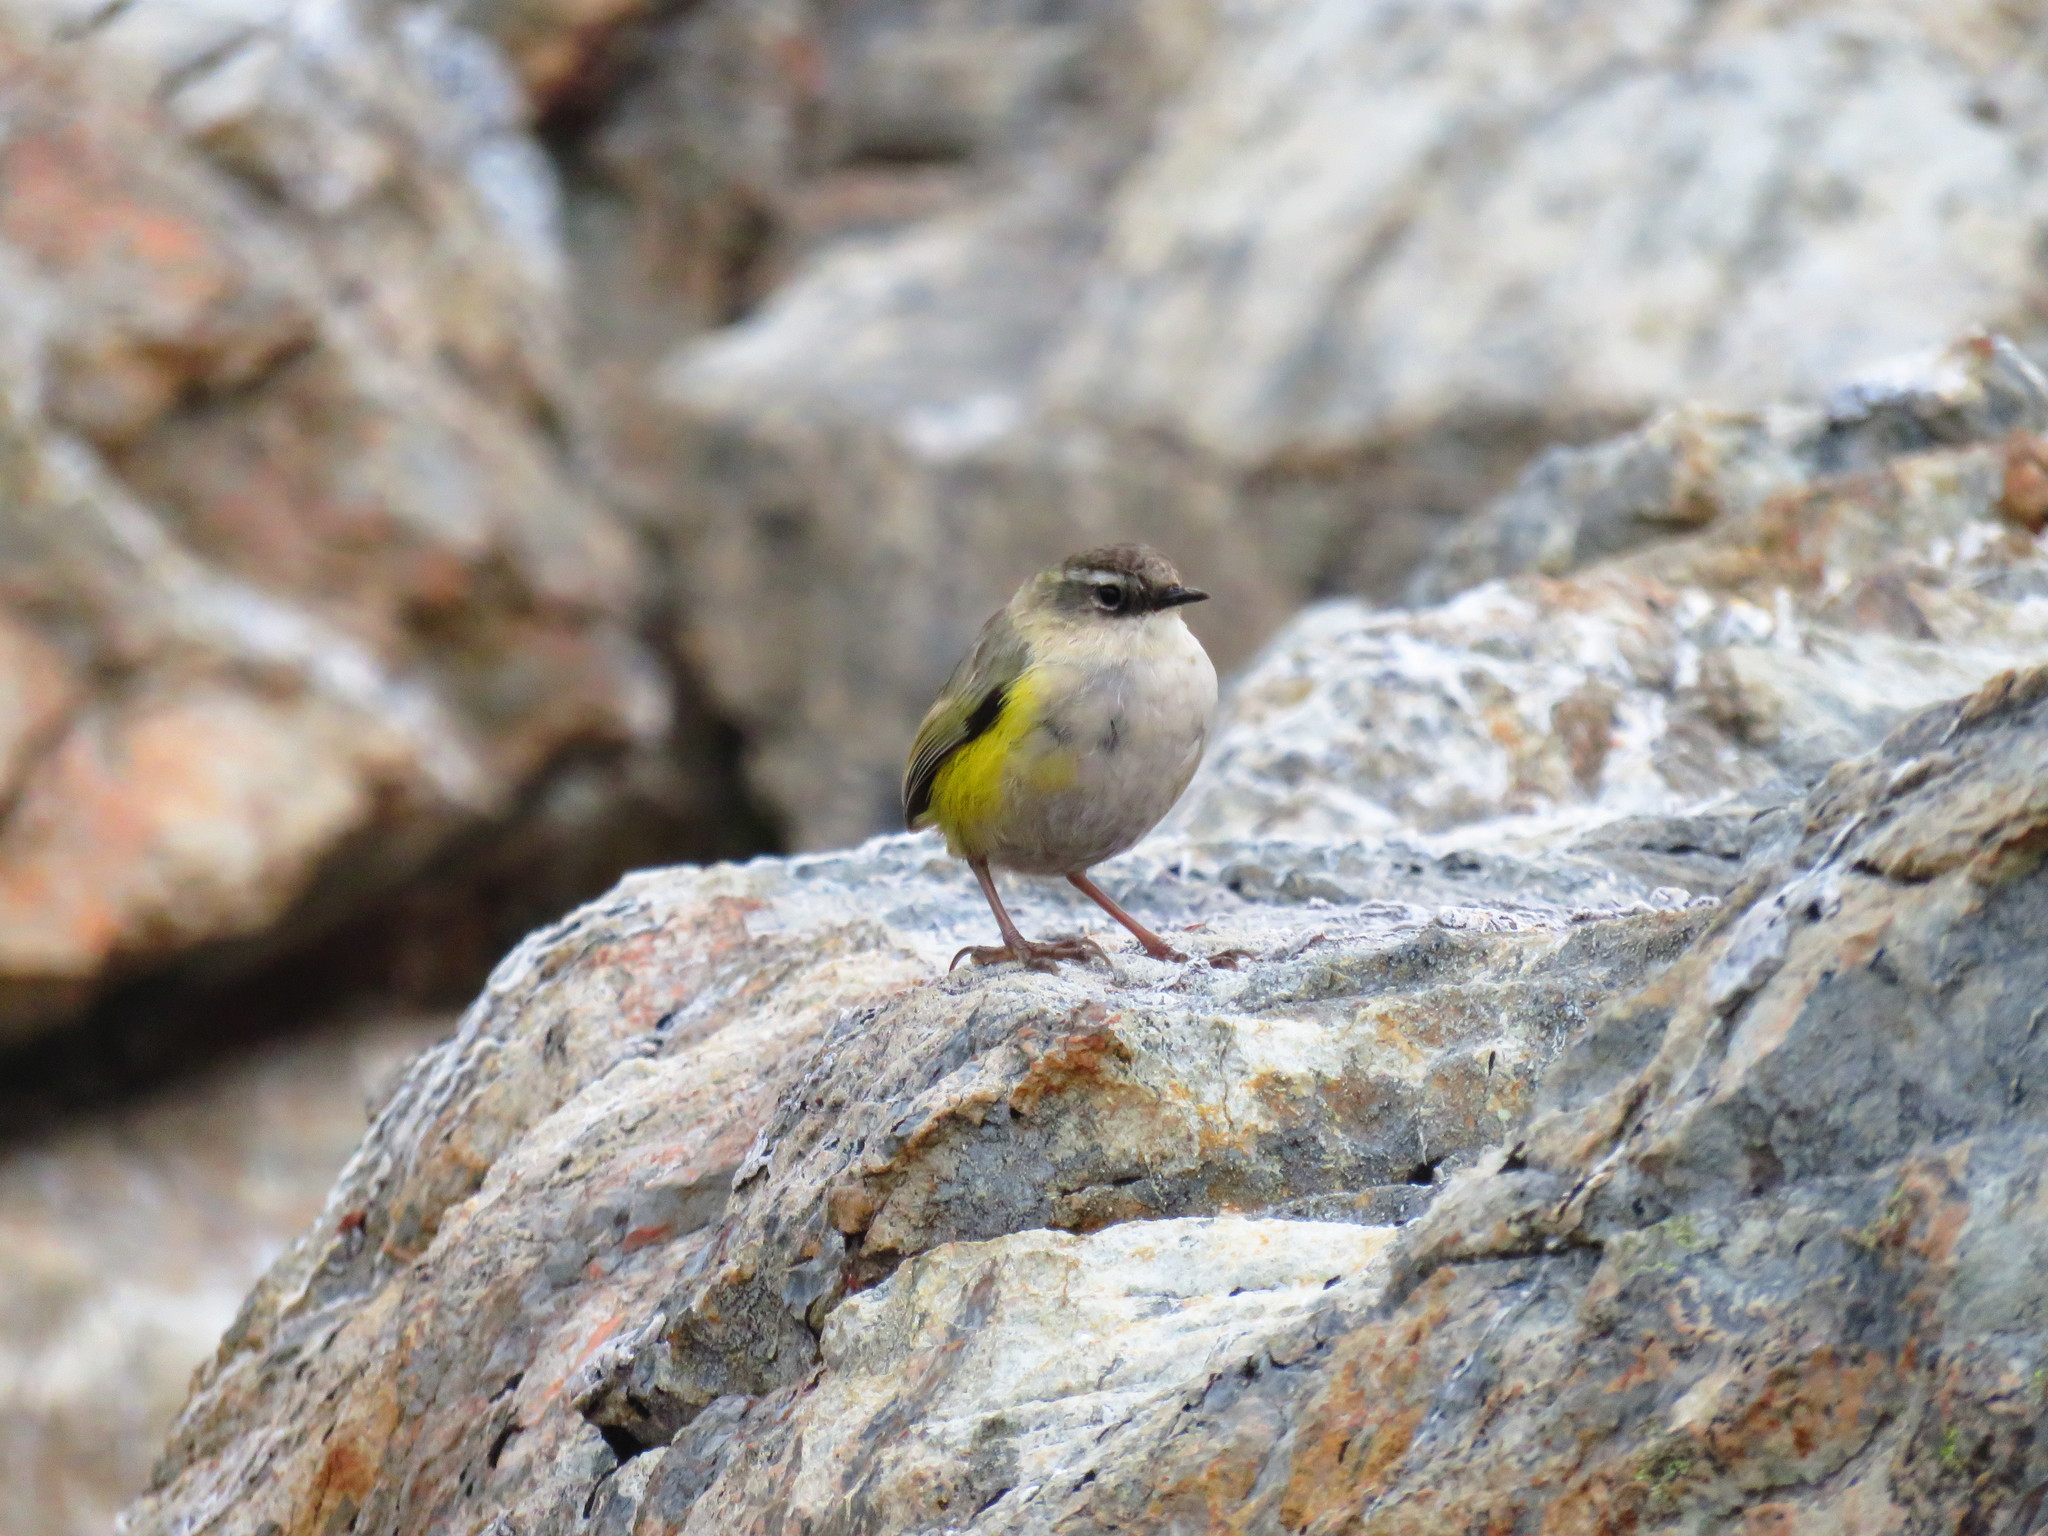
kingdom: Animalia
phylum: Chordata
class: Aves
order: Passeriformes
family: Acanthisittidae
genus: Xenicus
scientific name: Xenicus gilviventris
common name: New zealand rockwren
